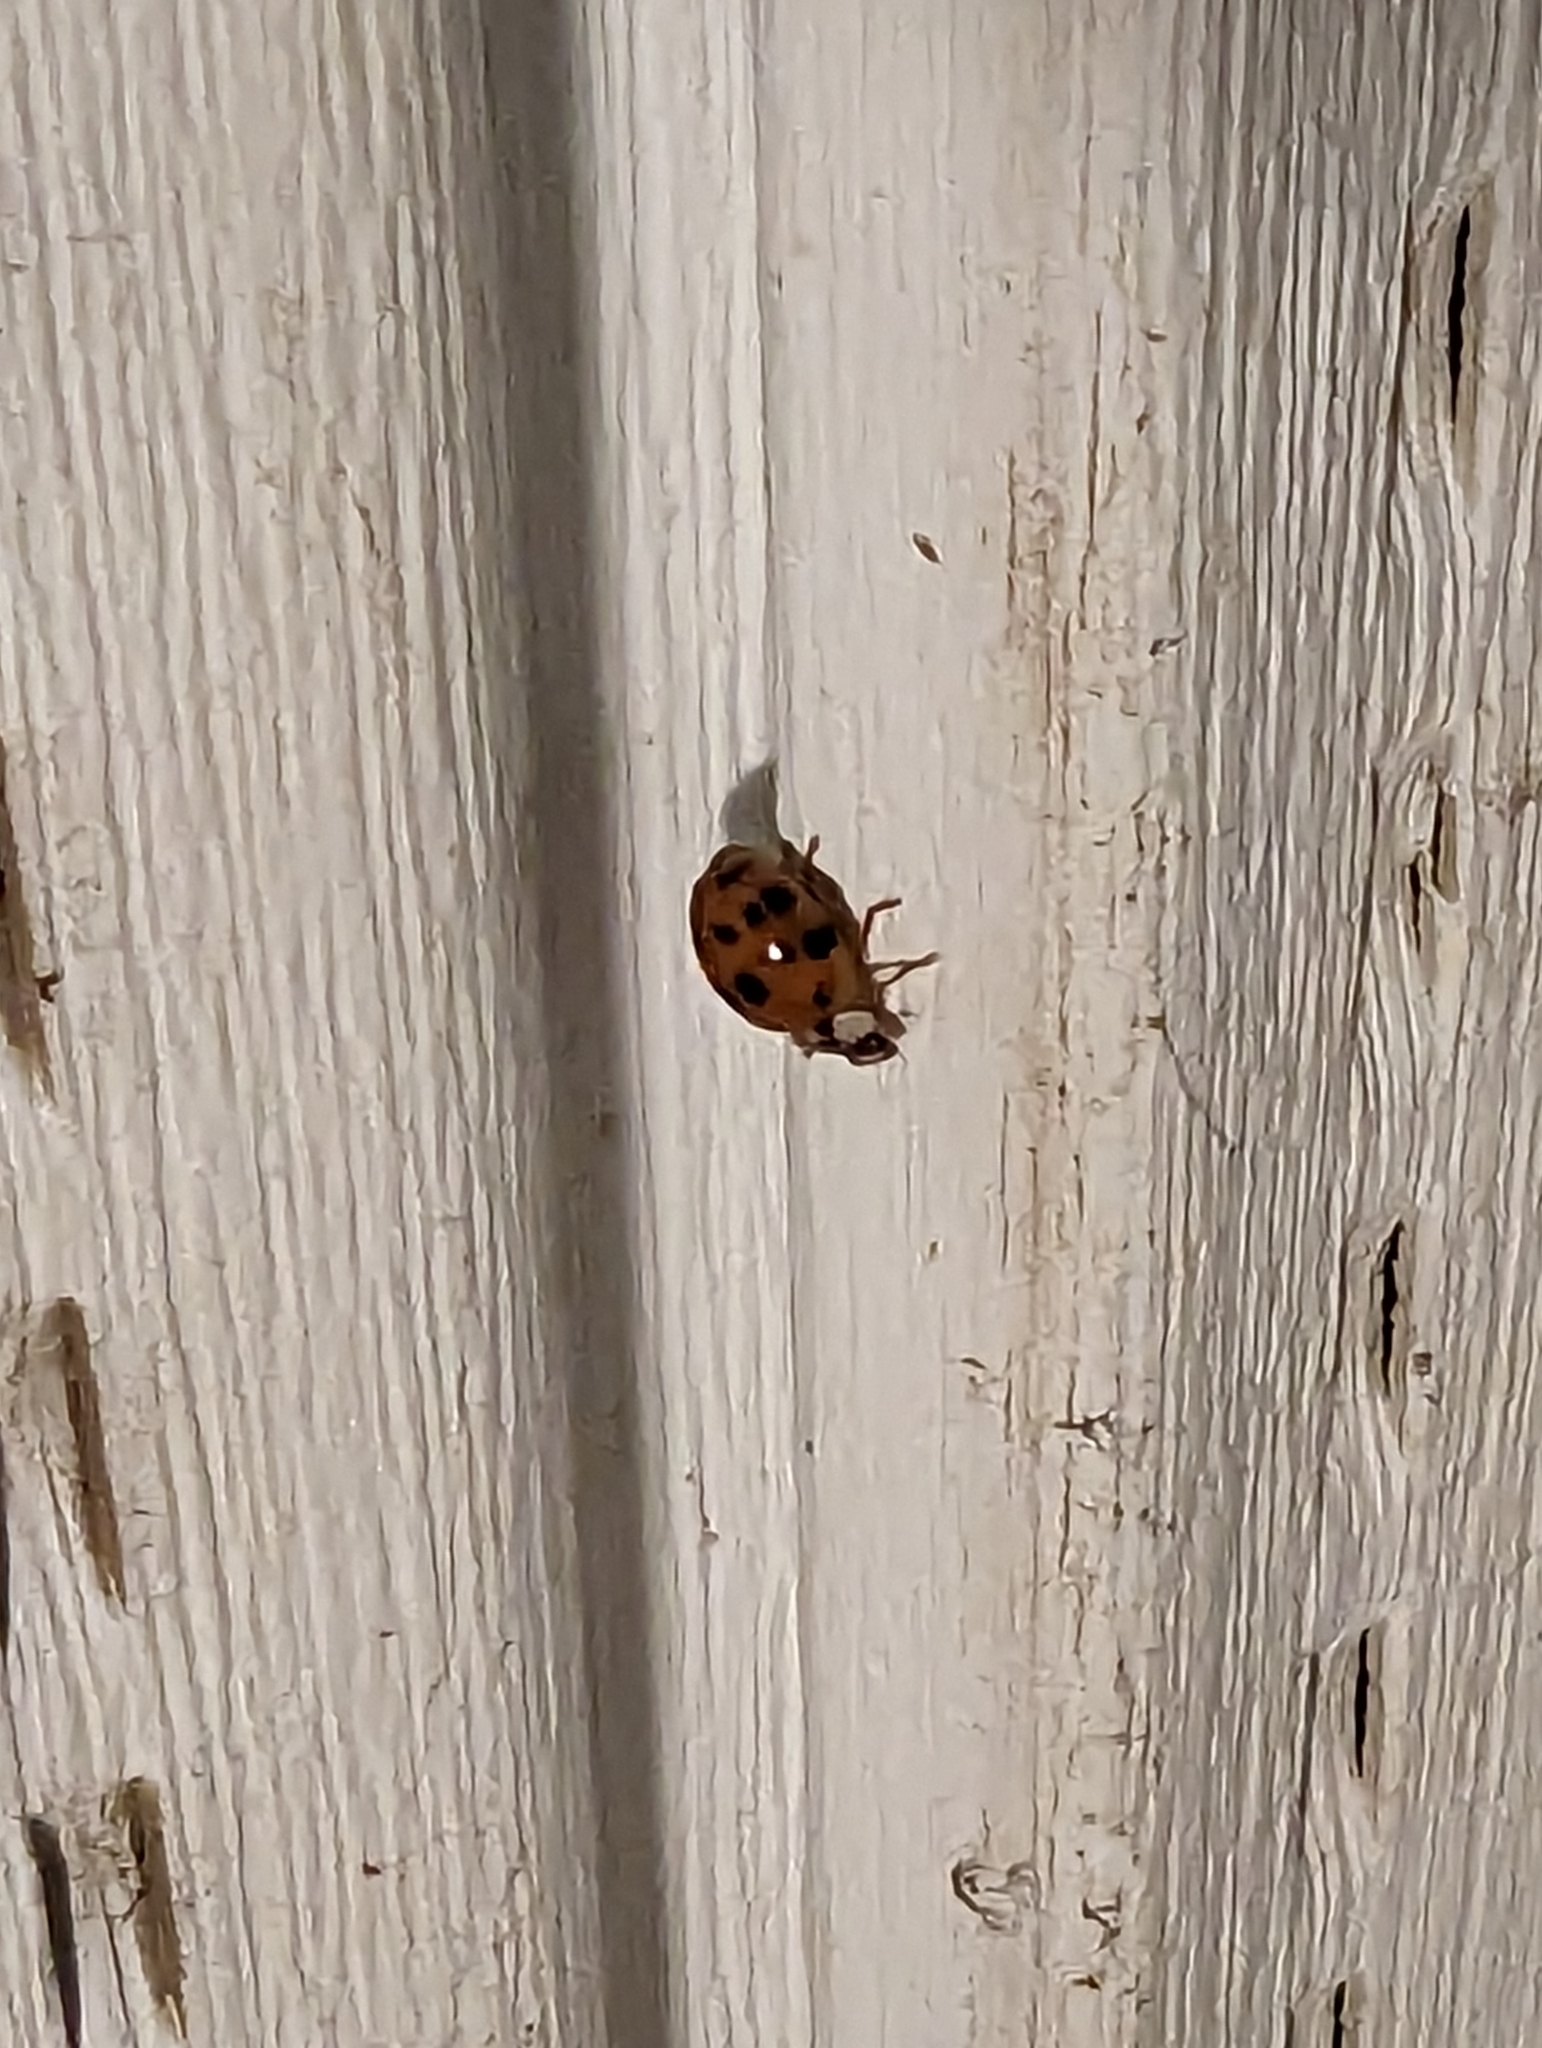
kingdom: Animalia
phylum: Arthropoda
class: Insecta
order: Coleoptera
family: Coccinellidae
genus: Harmonia
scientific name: Harmonia axyridis
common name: Harlequin ladybird
